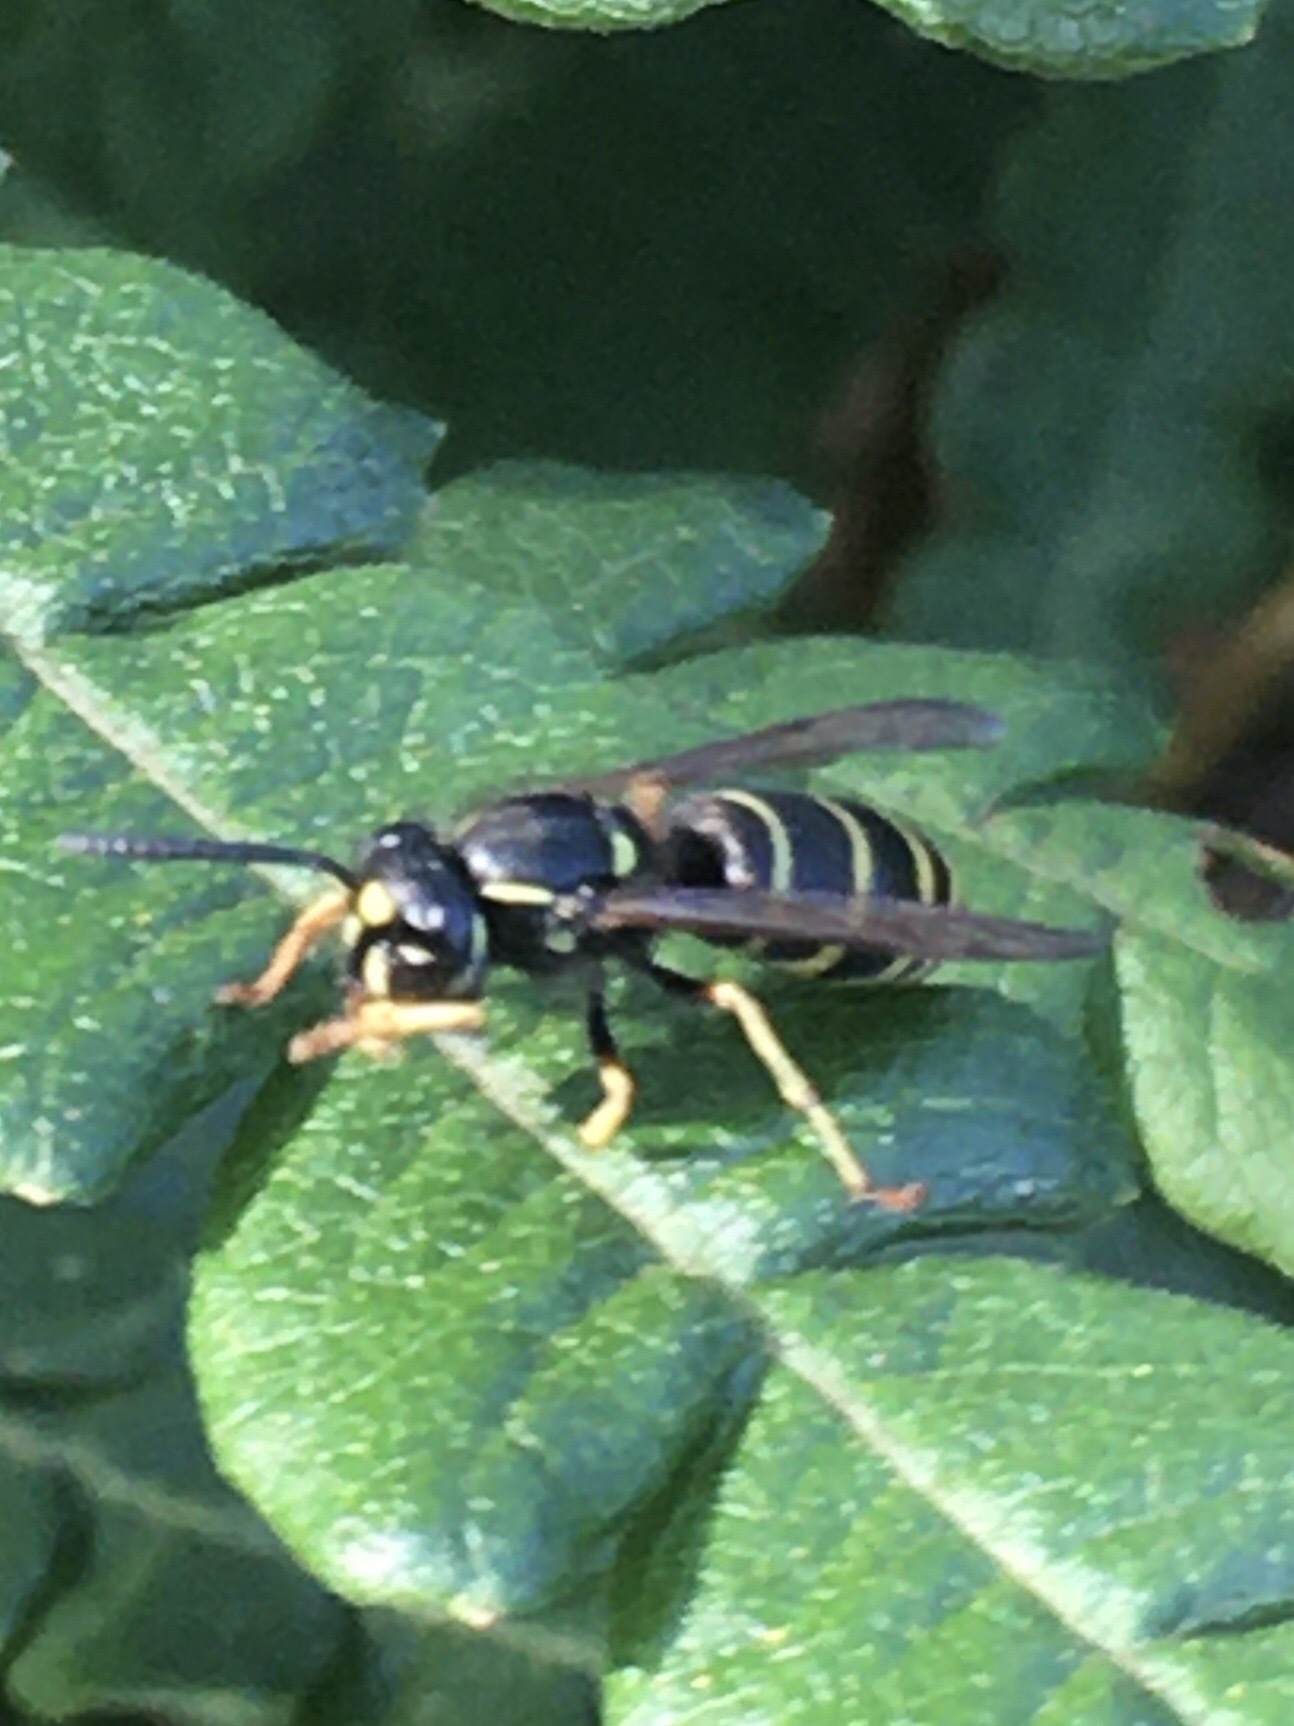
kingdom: Animalia
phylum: Arthropoda
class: Insecta
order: Hymenoptera
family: Vespidae
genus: Vespula
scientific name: Vespula acadica
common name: Forest yellowjacket
